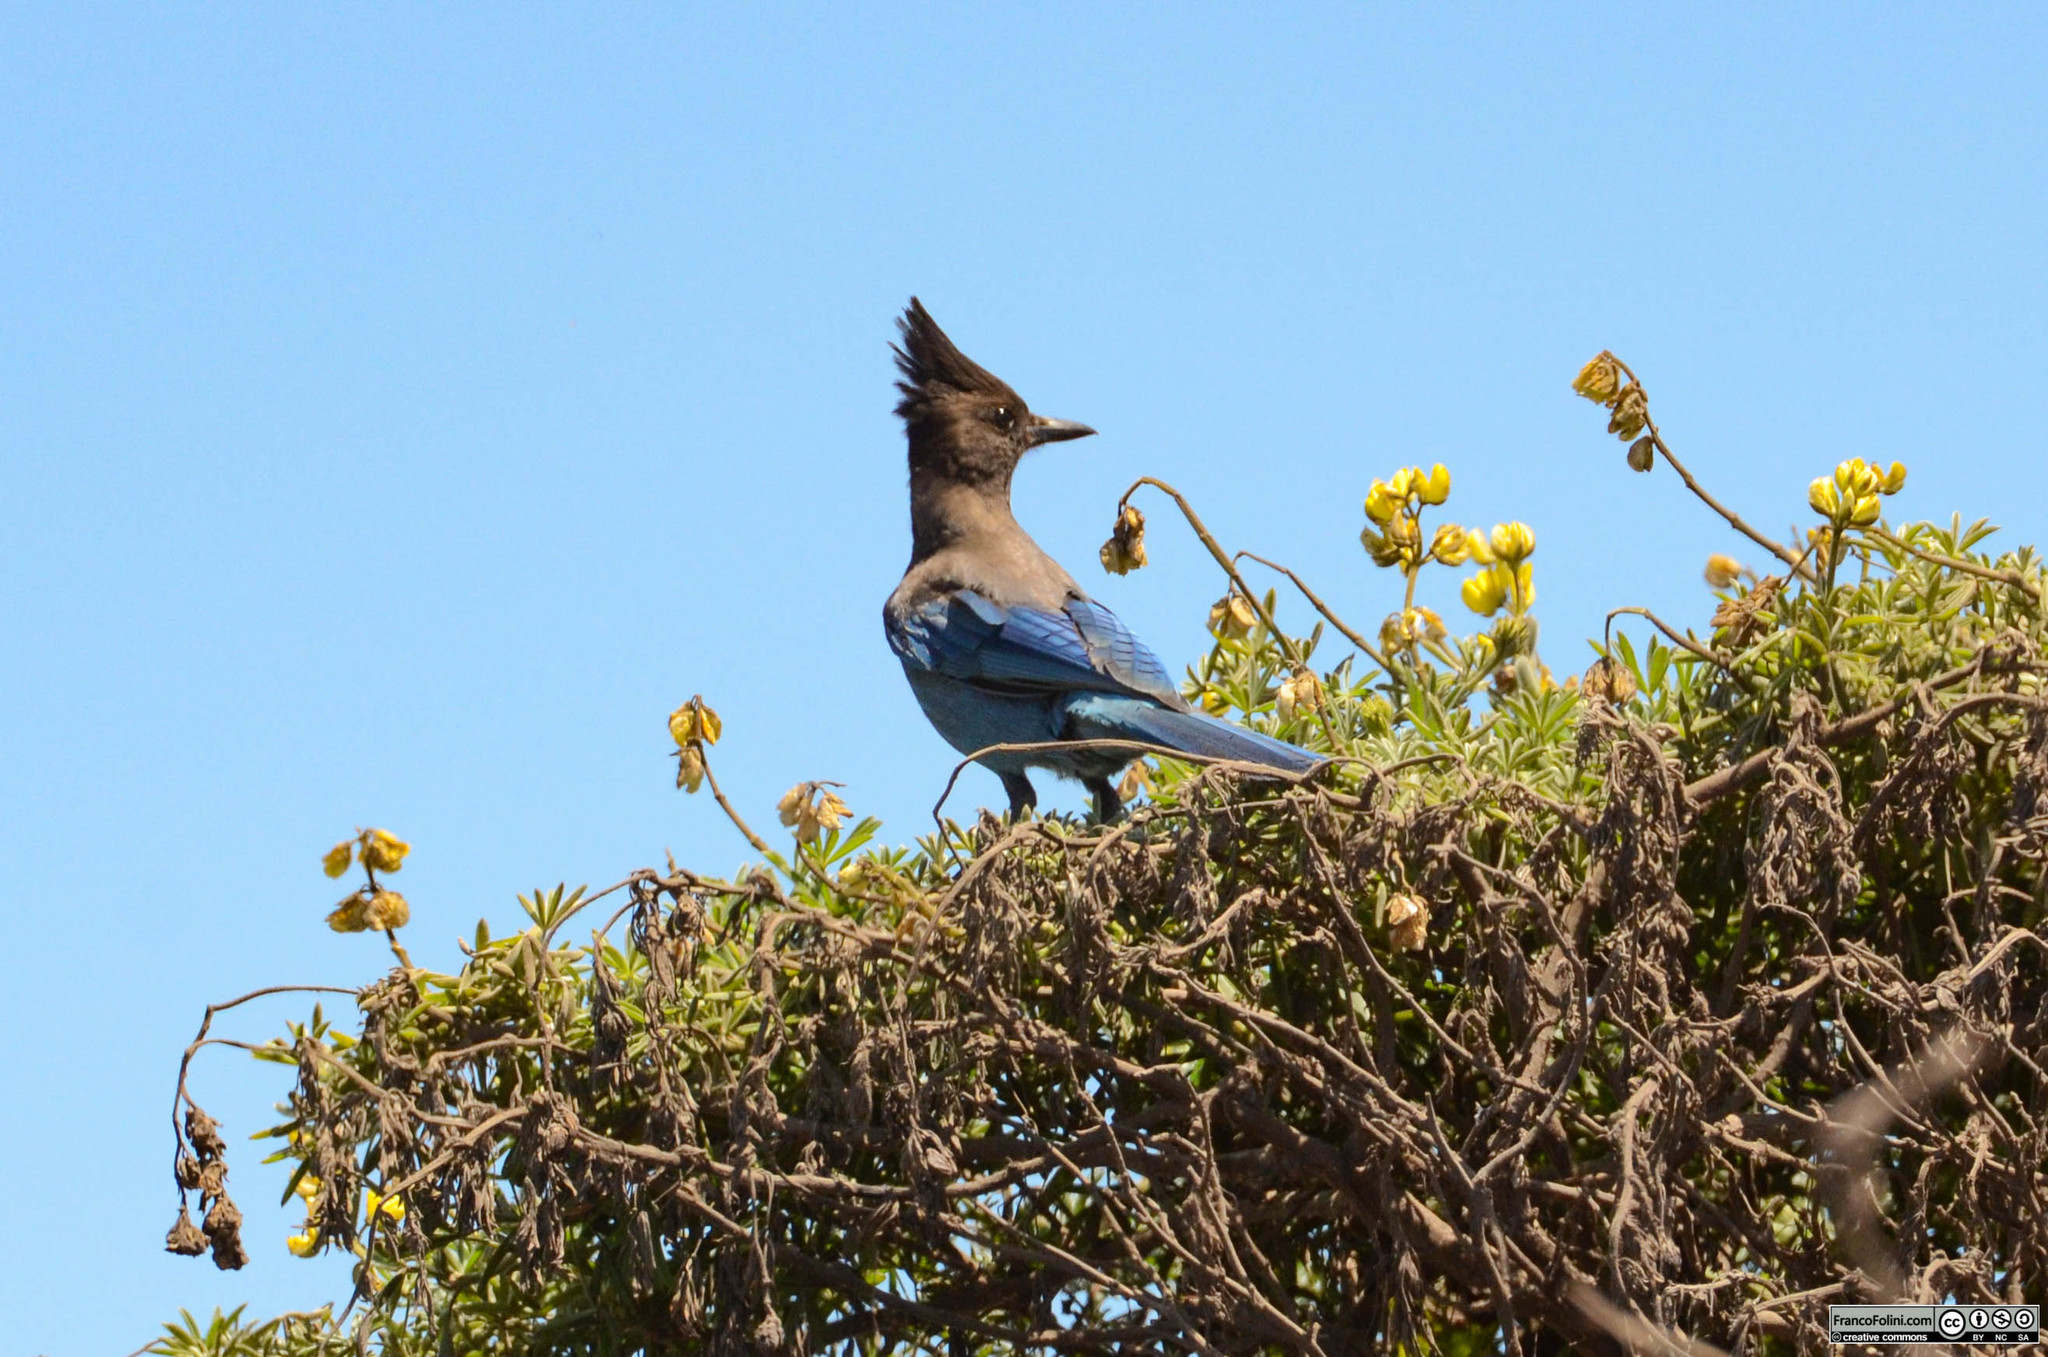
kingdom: Animalia
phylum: Chordata
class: Aves
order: Passeriformes
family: Corvidae
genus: Cyanocitta
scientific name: Cyanocitta stelleri
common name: Steller's jay
